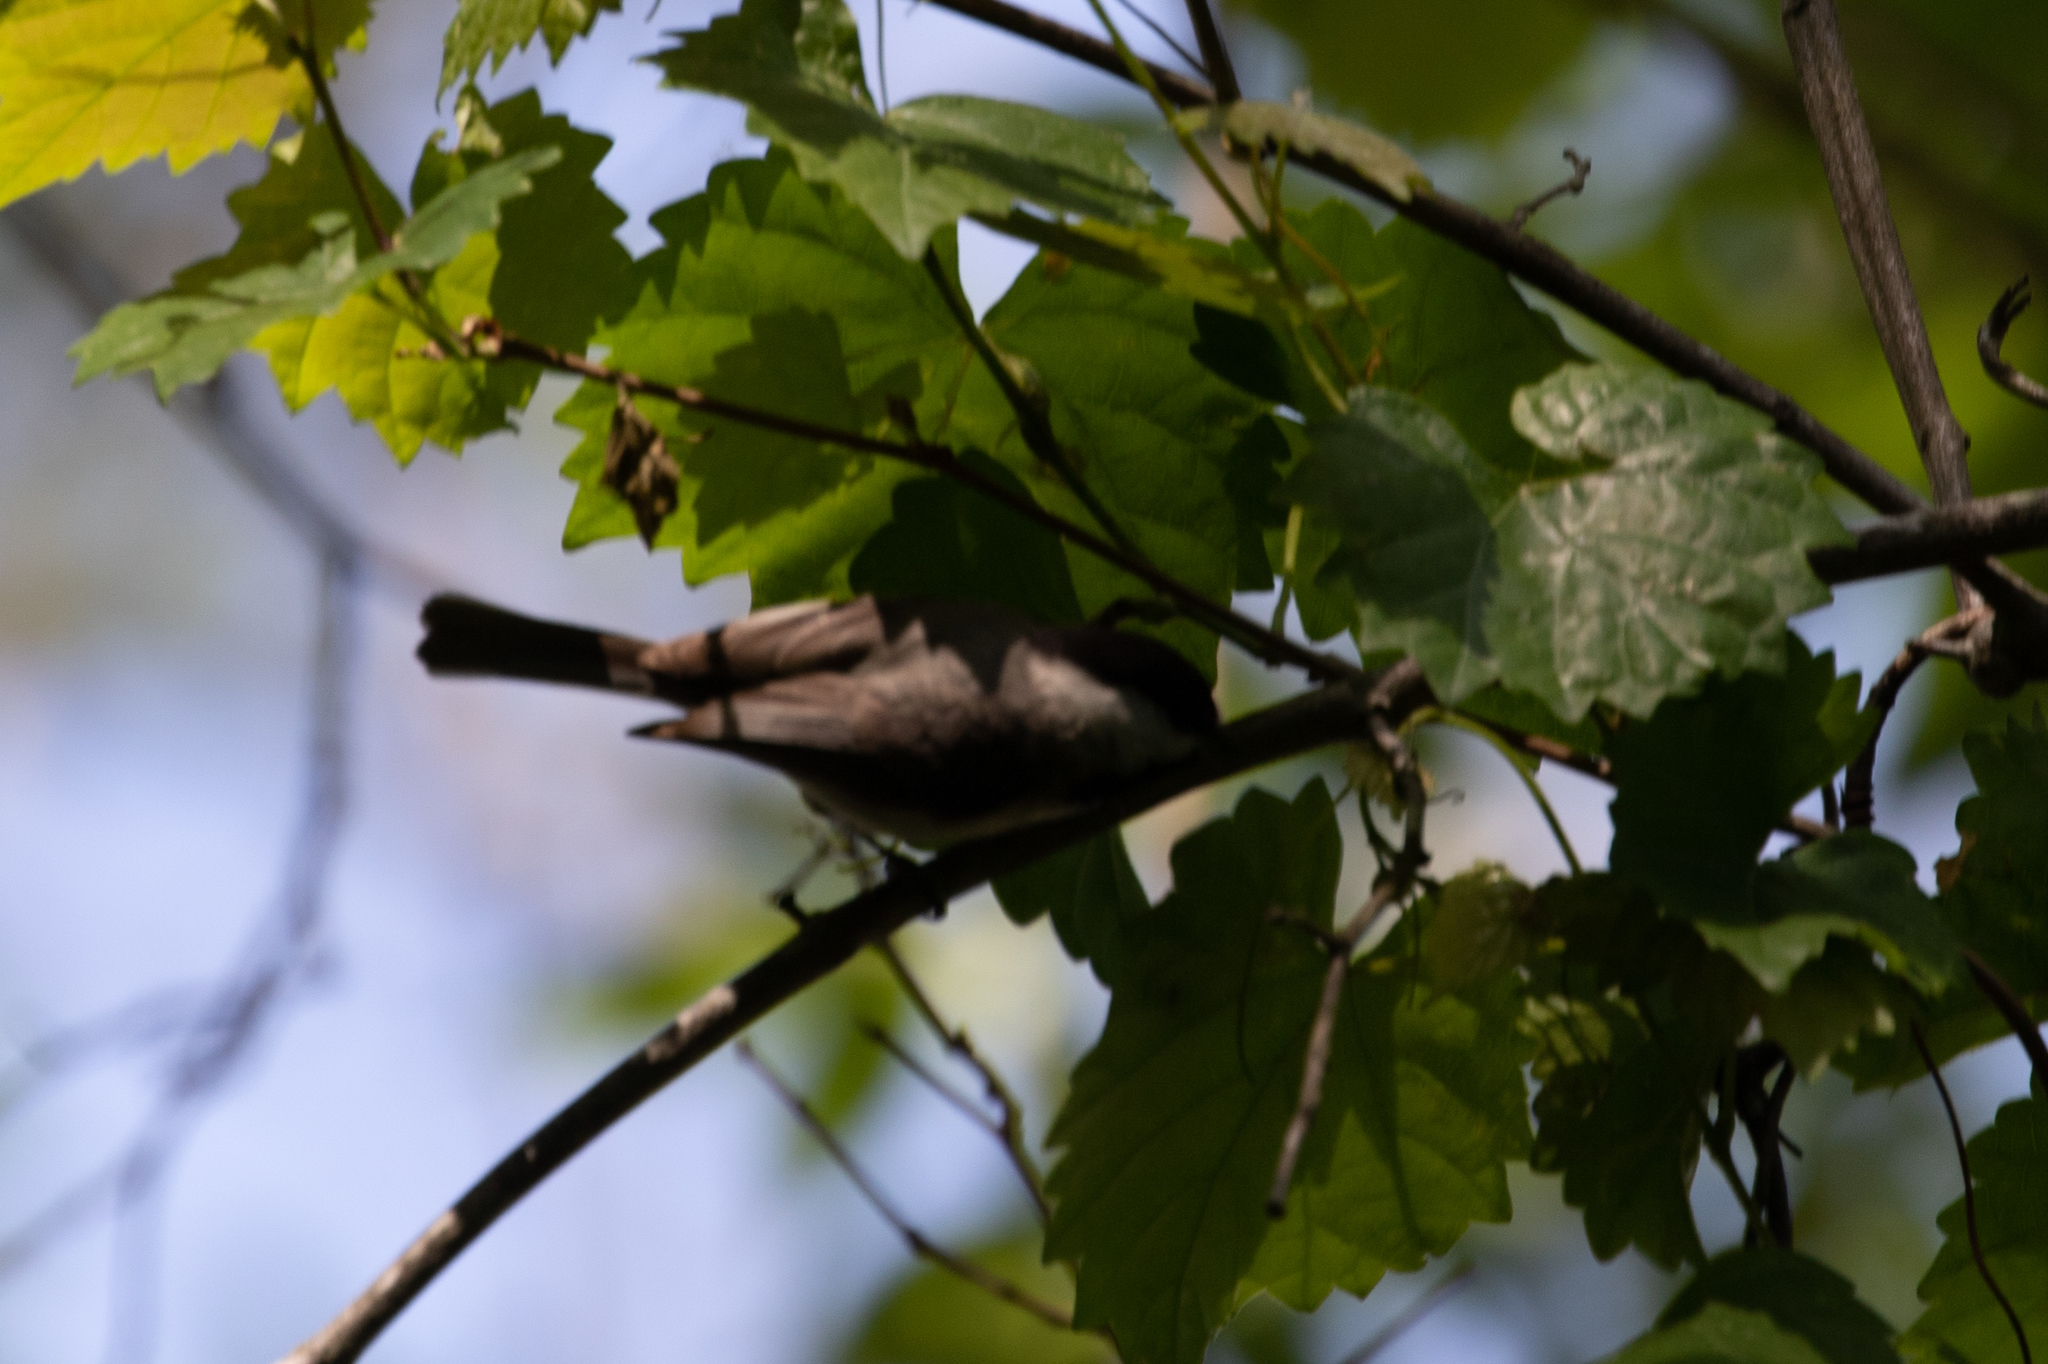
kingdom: Animalia
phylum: Chordata
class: Aves
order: Passeriformes
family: Paridae
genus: Poecile
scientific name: Poecile carolinensis
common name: Carolina chickadee
